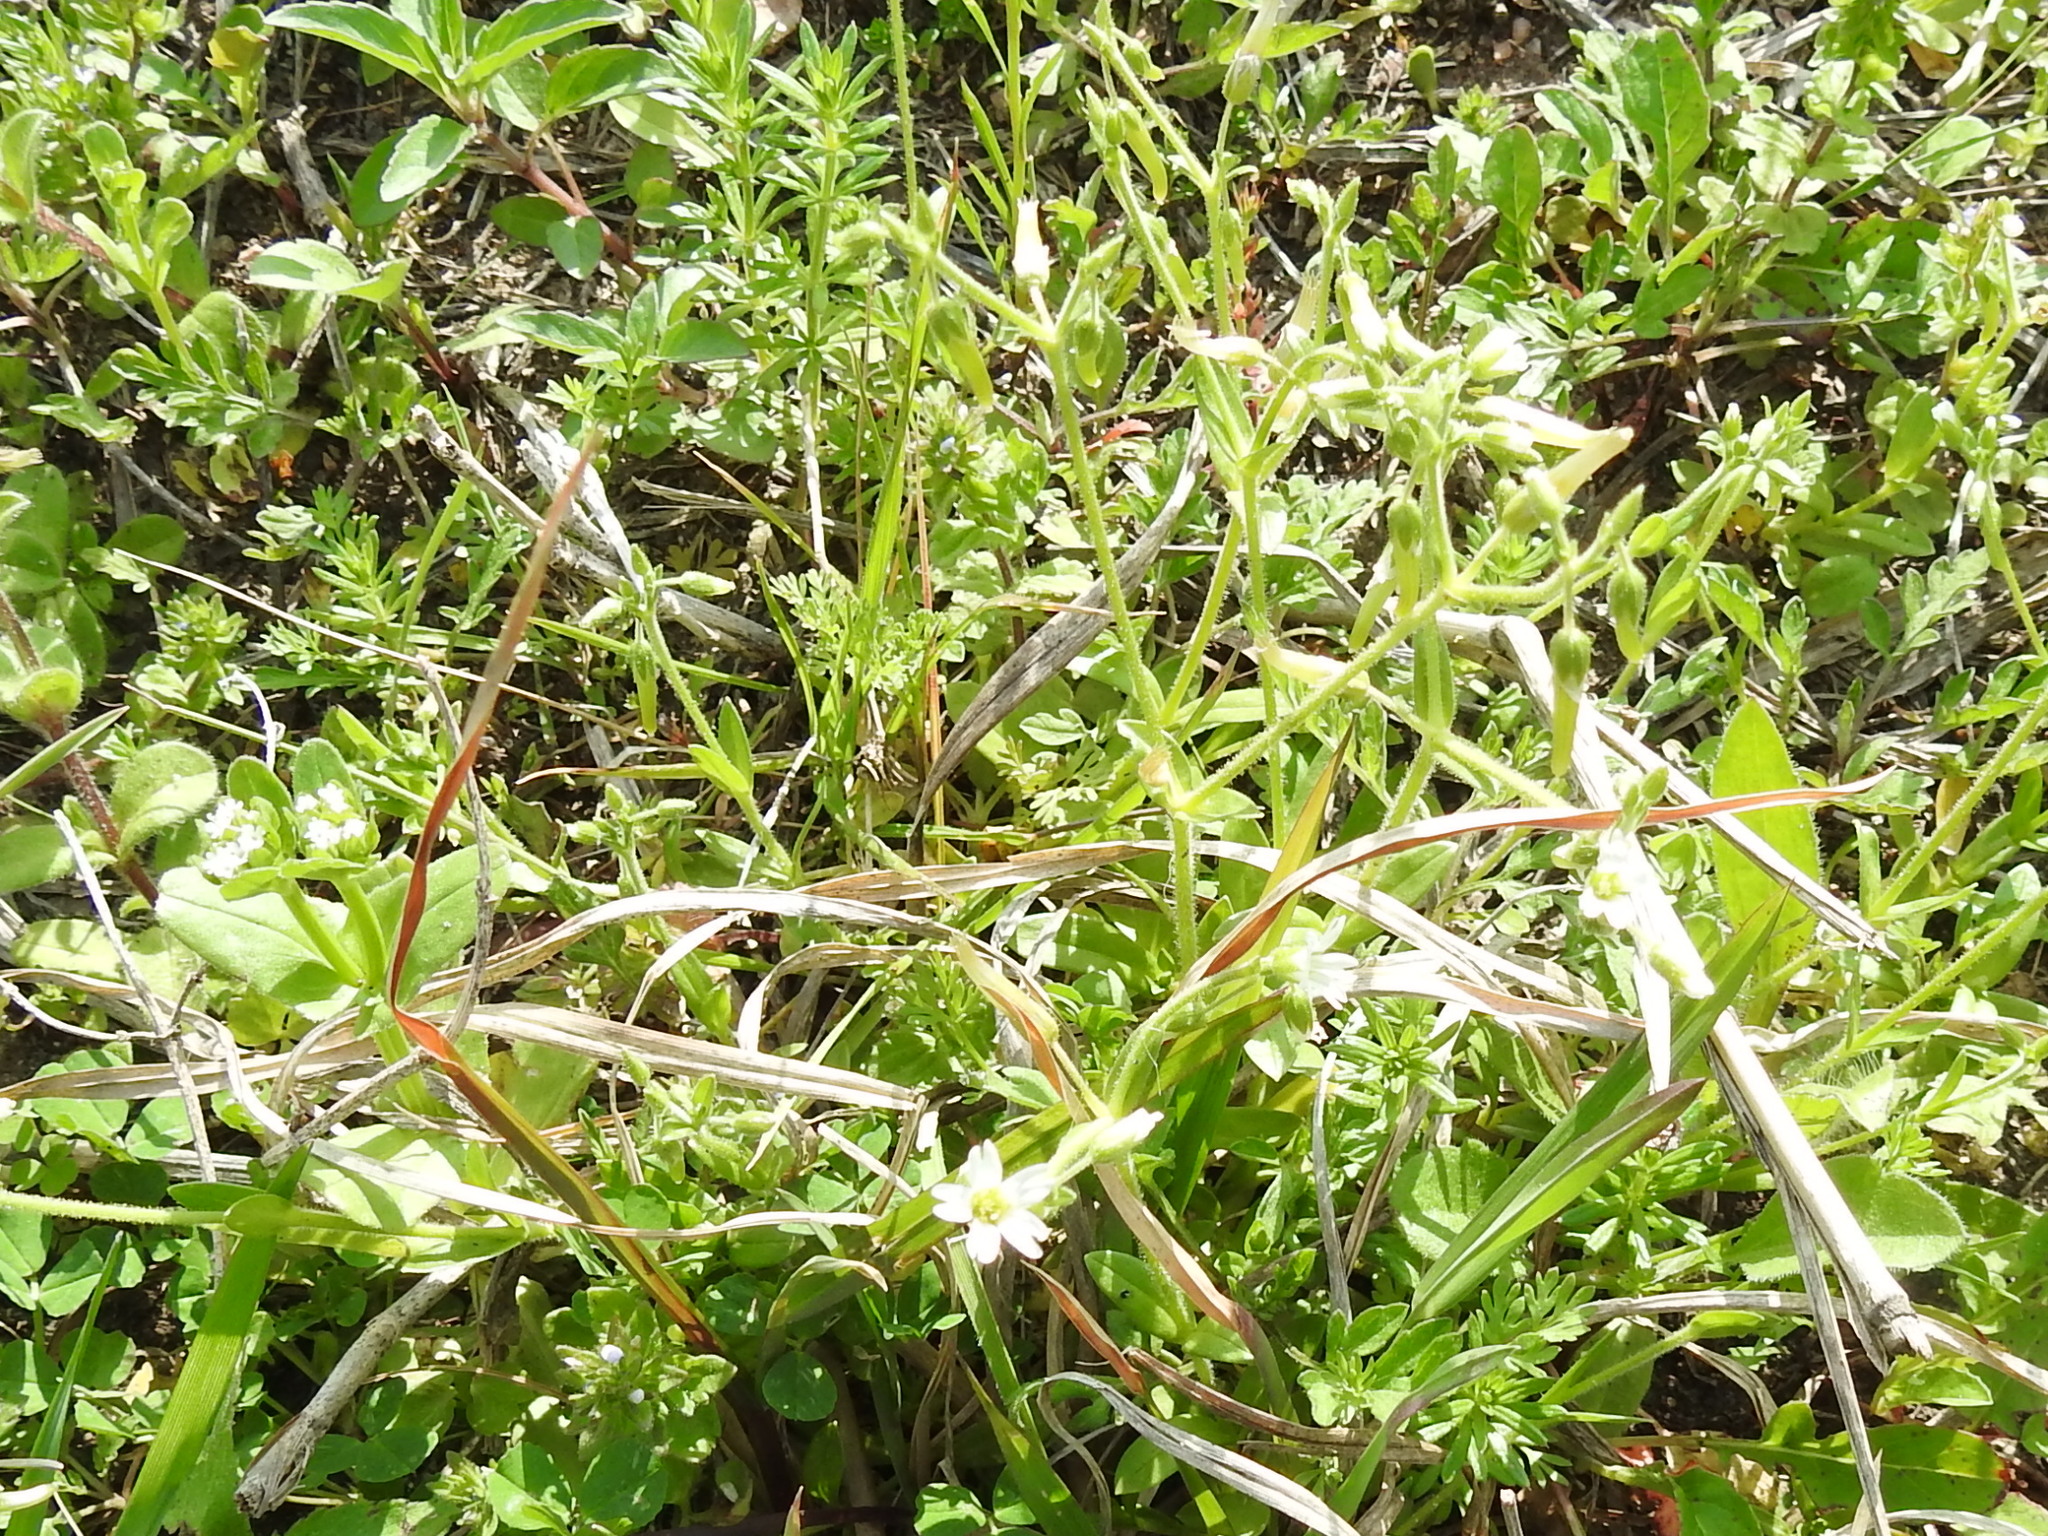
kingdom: Plantae
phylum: Tracheophyta
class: Magnoliopsida
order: Caryophyllales
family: Caryophyllaceae
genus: Cerastium
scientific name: Cerastium brachypodum
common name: Short-pedicelled nodding chickweed
